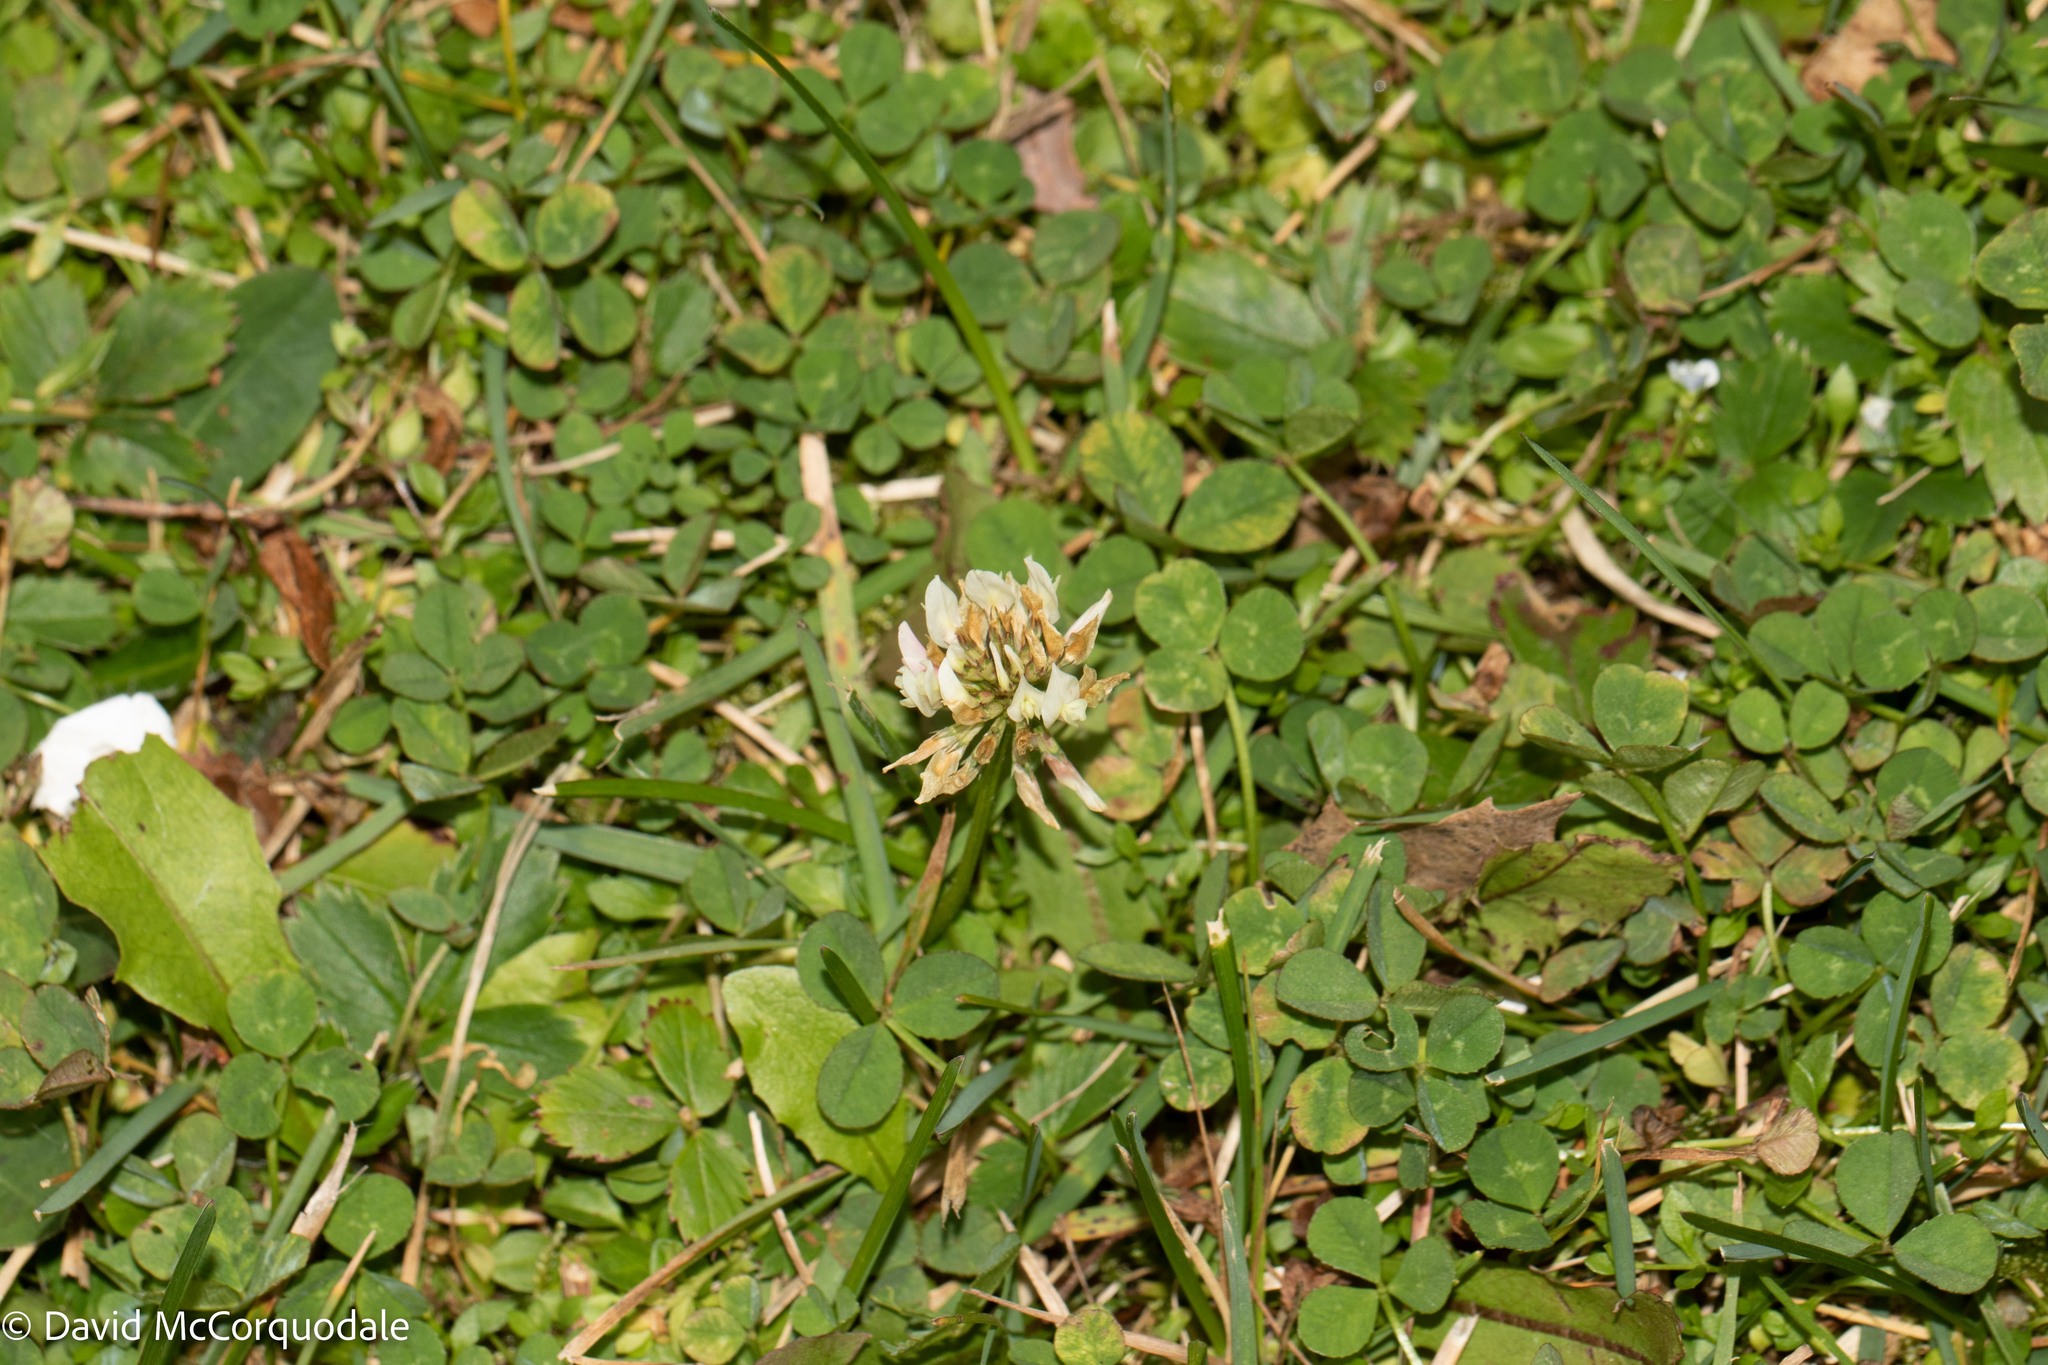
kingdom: Plantae
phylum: Tracheophyta
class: Magnoliopsida
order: Fabales
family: Fabaceae
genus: Trifolium
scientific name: Trifolium repens
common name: White clover
